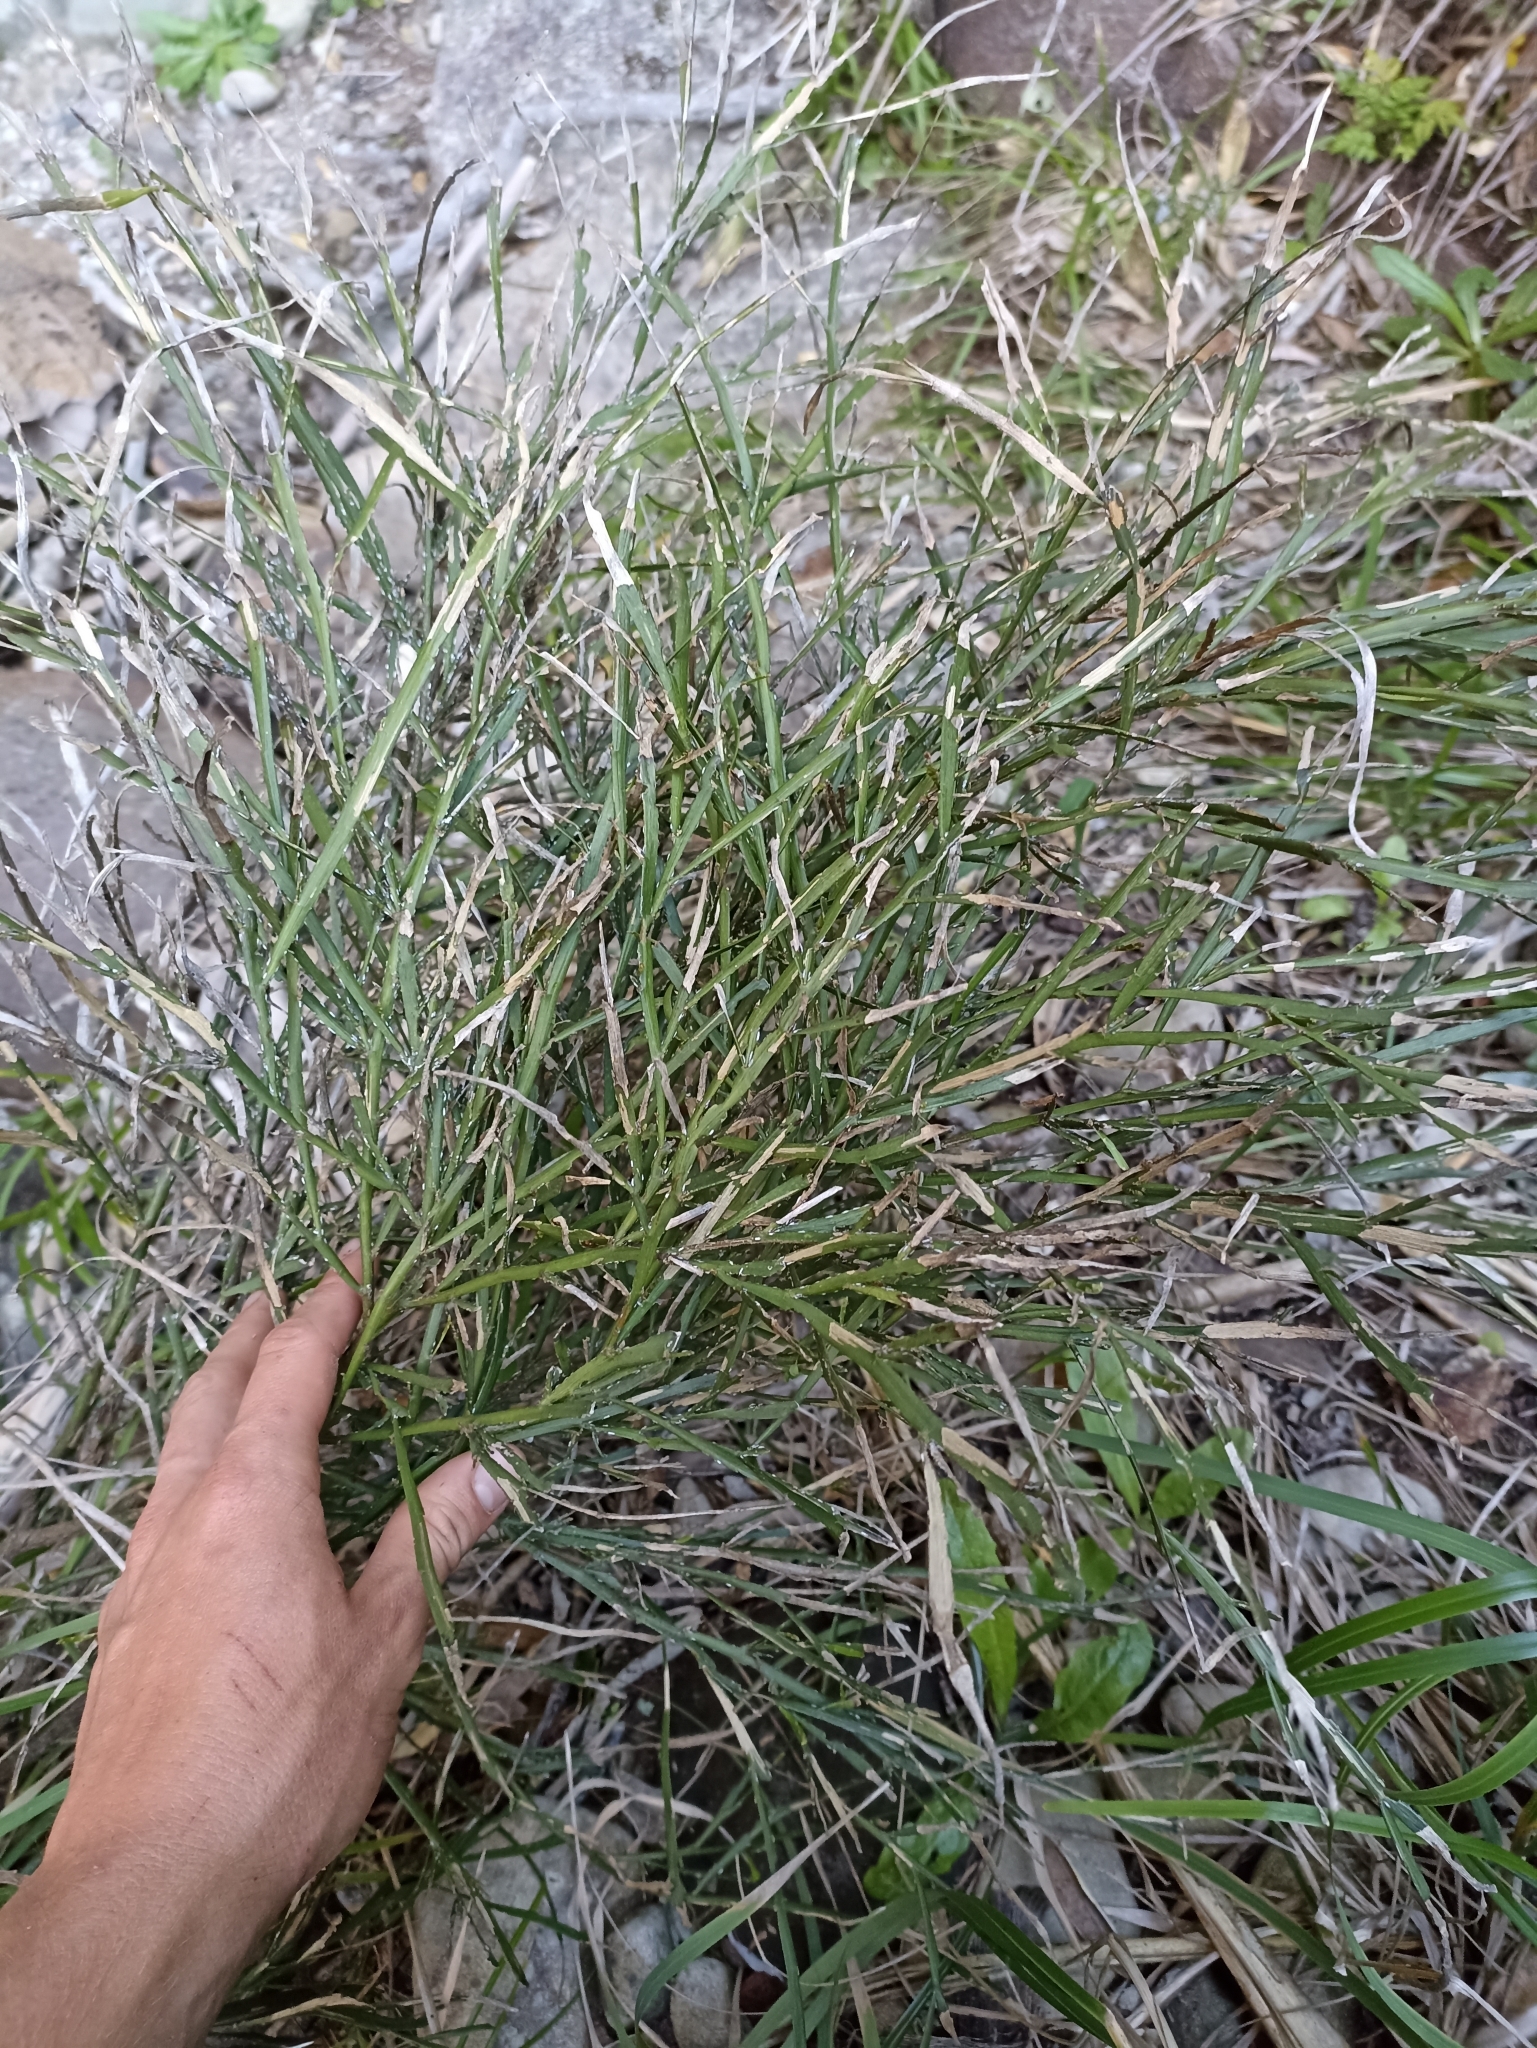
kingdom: Plantae
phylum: Tracheophyta
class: Magnoliopsida
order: Fabales
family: Fabaceae
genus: Carmichaelia
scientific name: Carmichaelia australis
